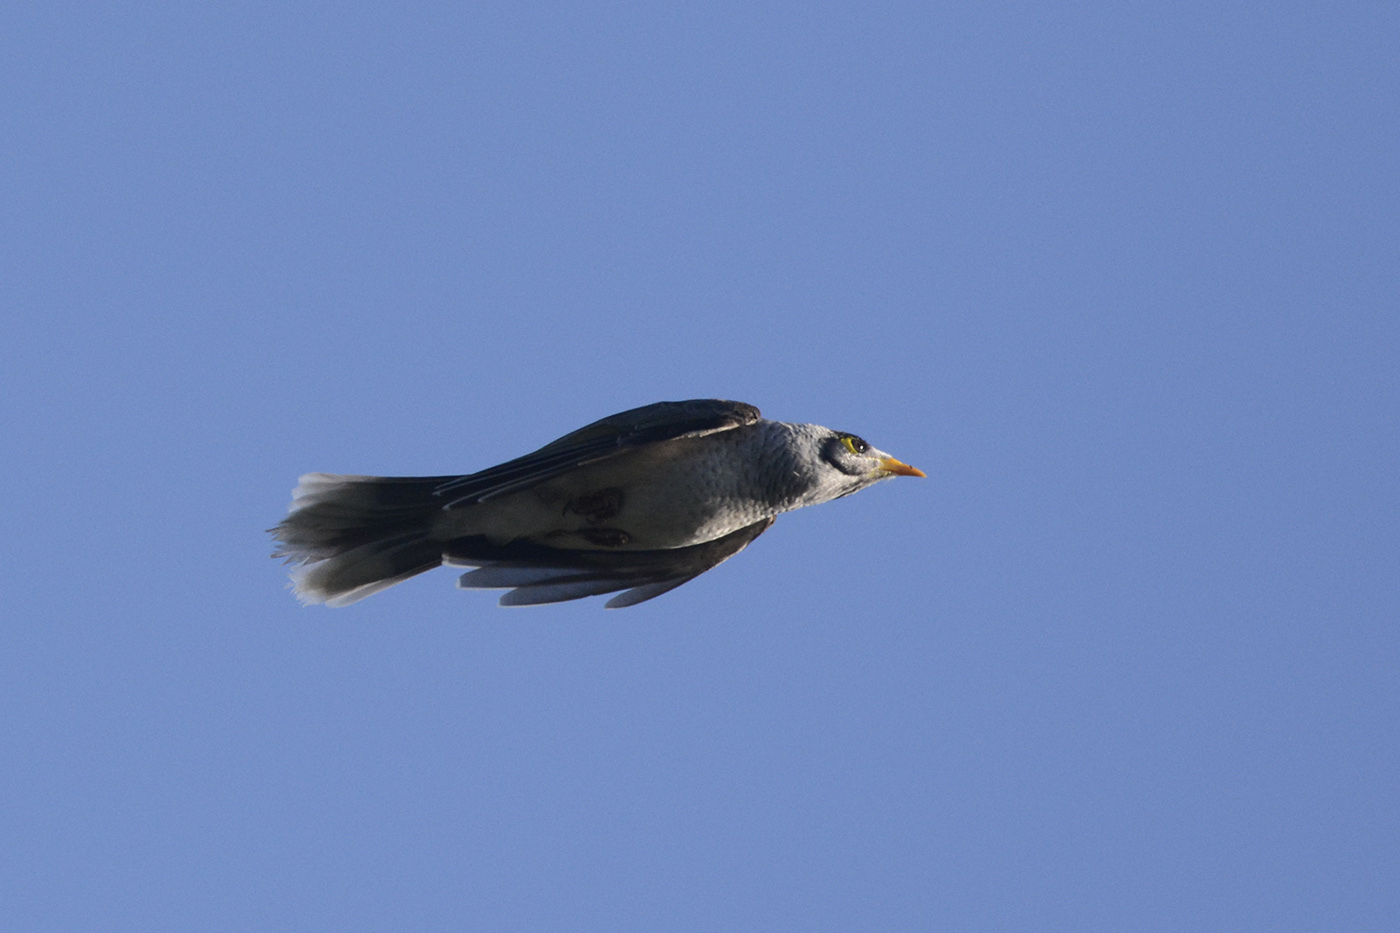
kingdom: Animalia
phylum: Chordata
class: Aves
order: Passeriformes
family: Meliphagidae
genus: Manorina
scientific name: Manorina melanocephala
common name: Noisy miner
